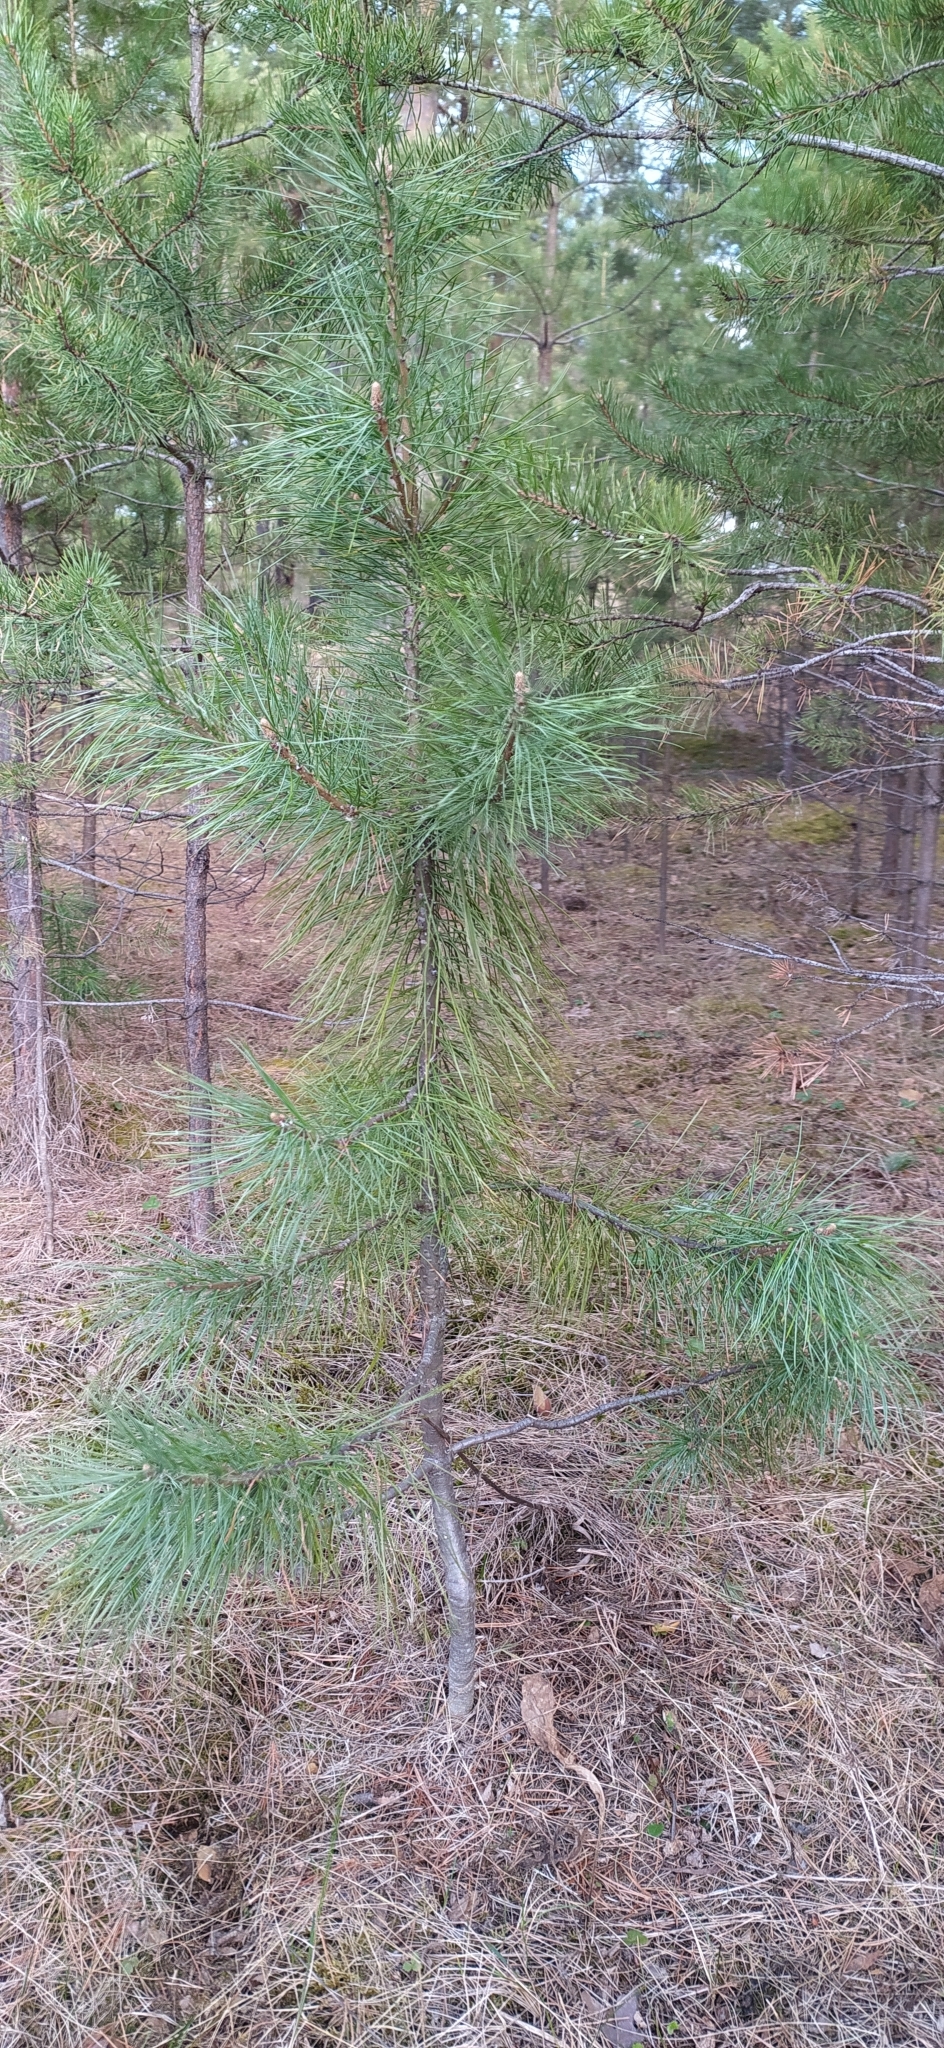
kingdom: Plantae
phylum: Tracheophyta
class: Pinopsida
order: Pinales
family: Pinaceae
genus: Pinus
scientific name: Pinus sibirica
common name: Siberian pine
